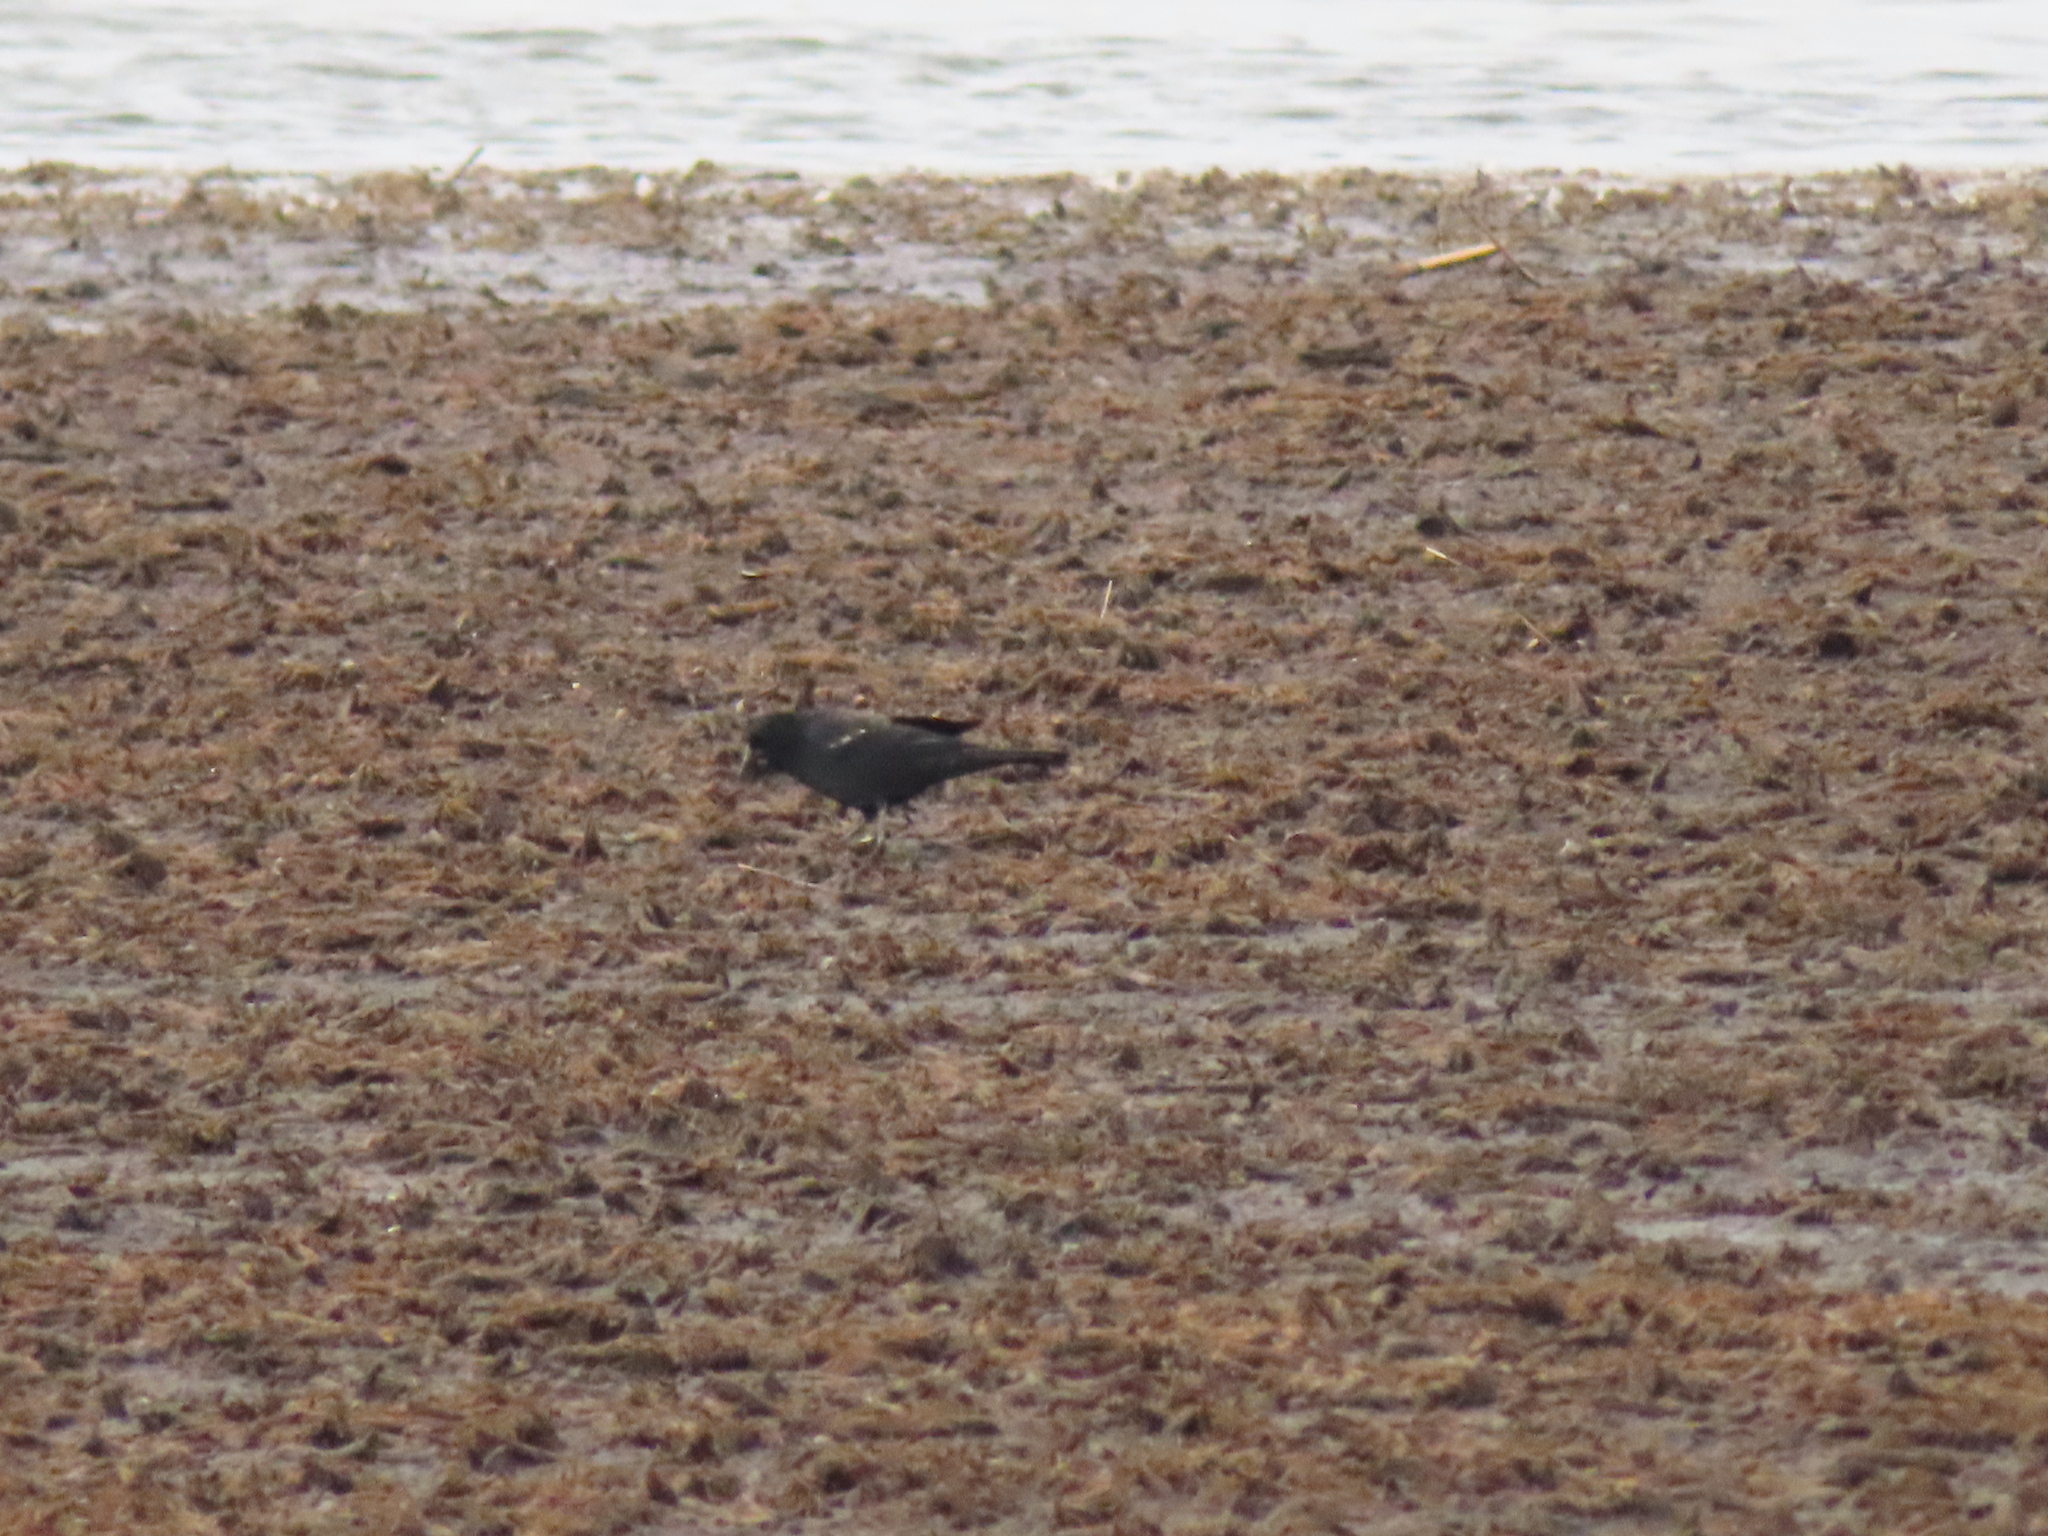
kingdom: Animalia
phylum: Chordata
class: Aves
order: Passeriformes
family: Icteridae
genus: Agelaius
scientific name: Agelaius phoeniceus
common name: Red-winged blackbird
